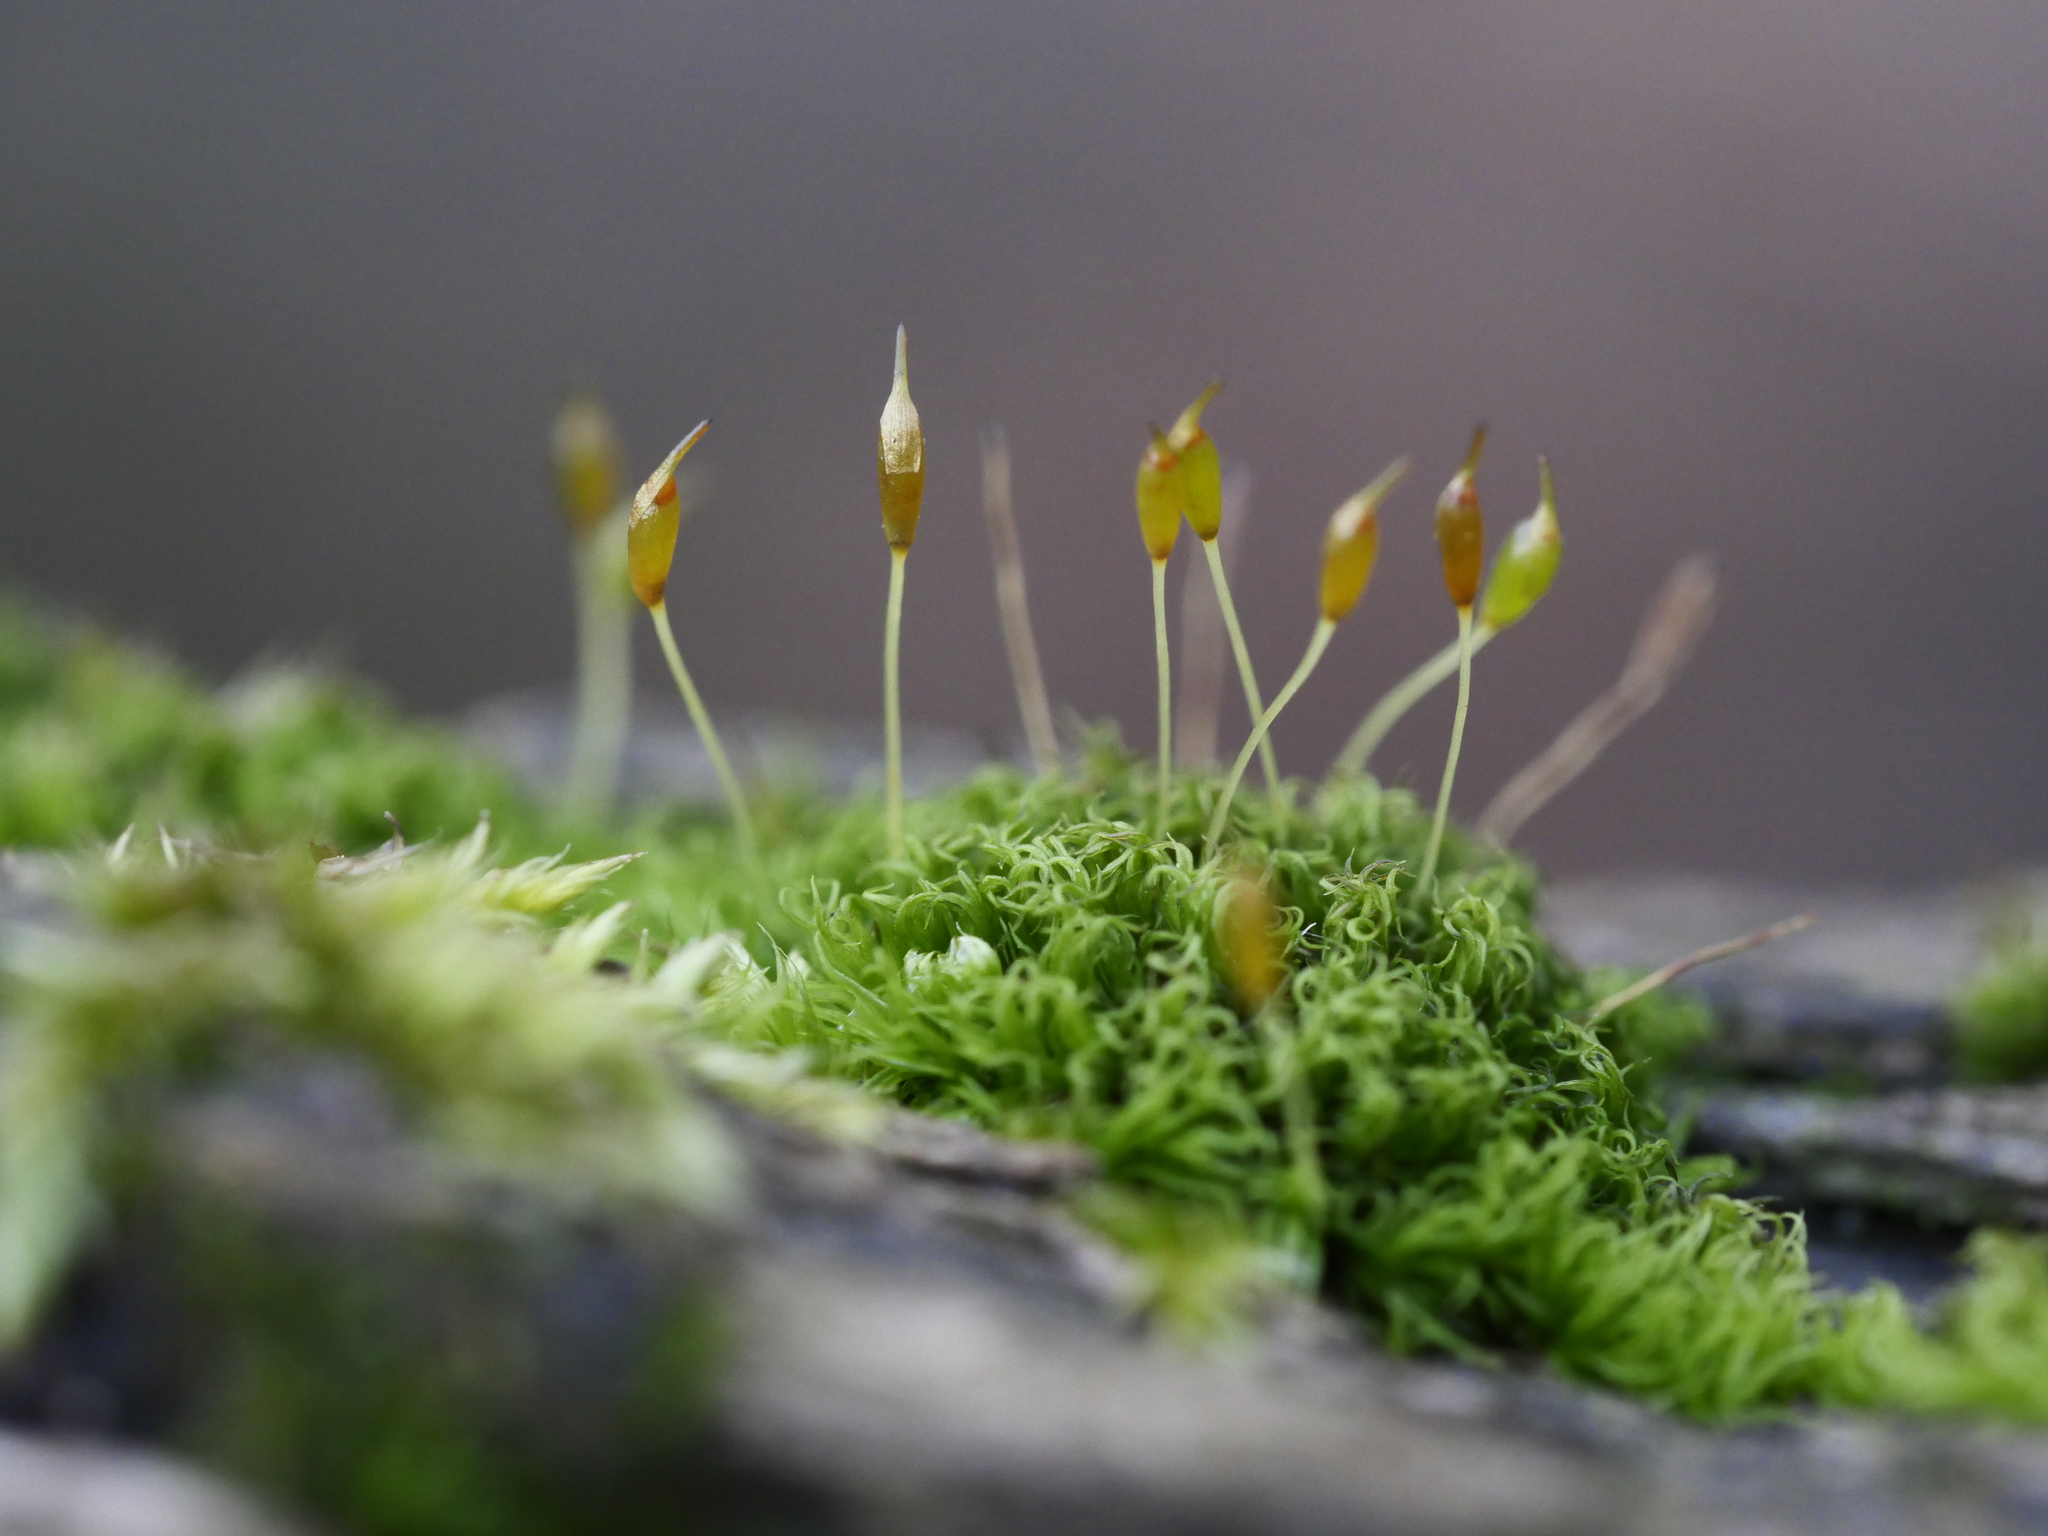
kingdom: Plantae
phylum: Bryophyta
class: Bryopsida
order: Dicranales
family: Rhabdoweisiaceae
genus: Dicranoweisia
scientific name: Dicranoweisia cirrata
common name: Common pincushion
